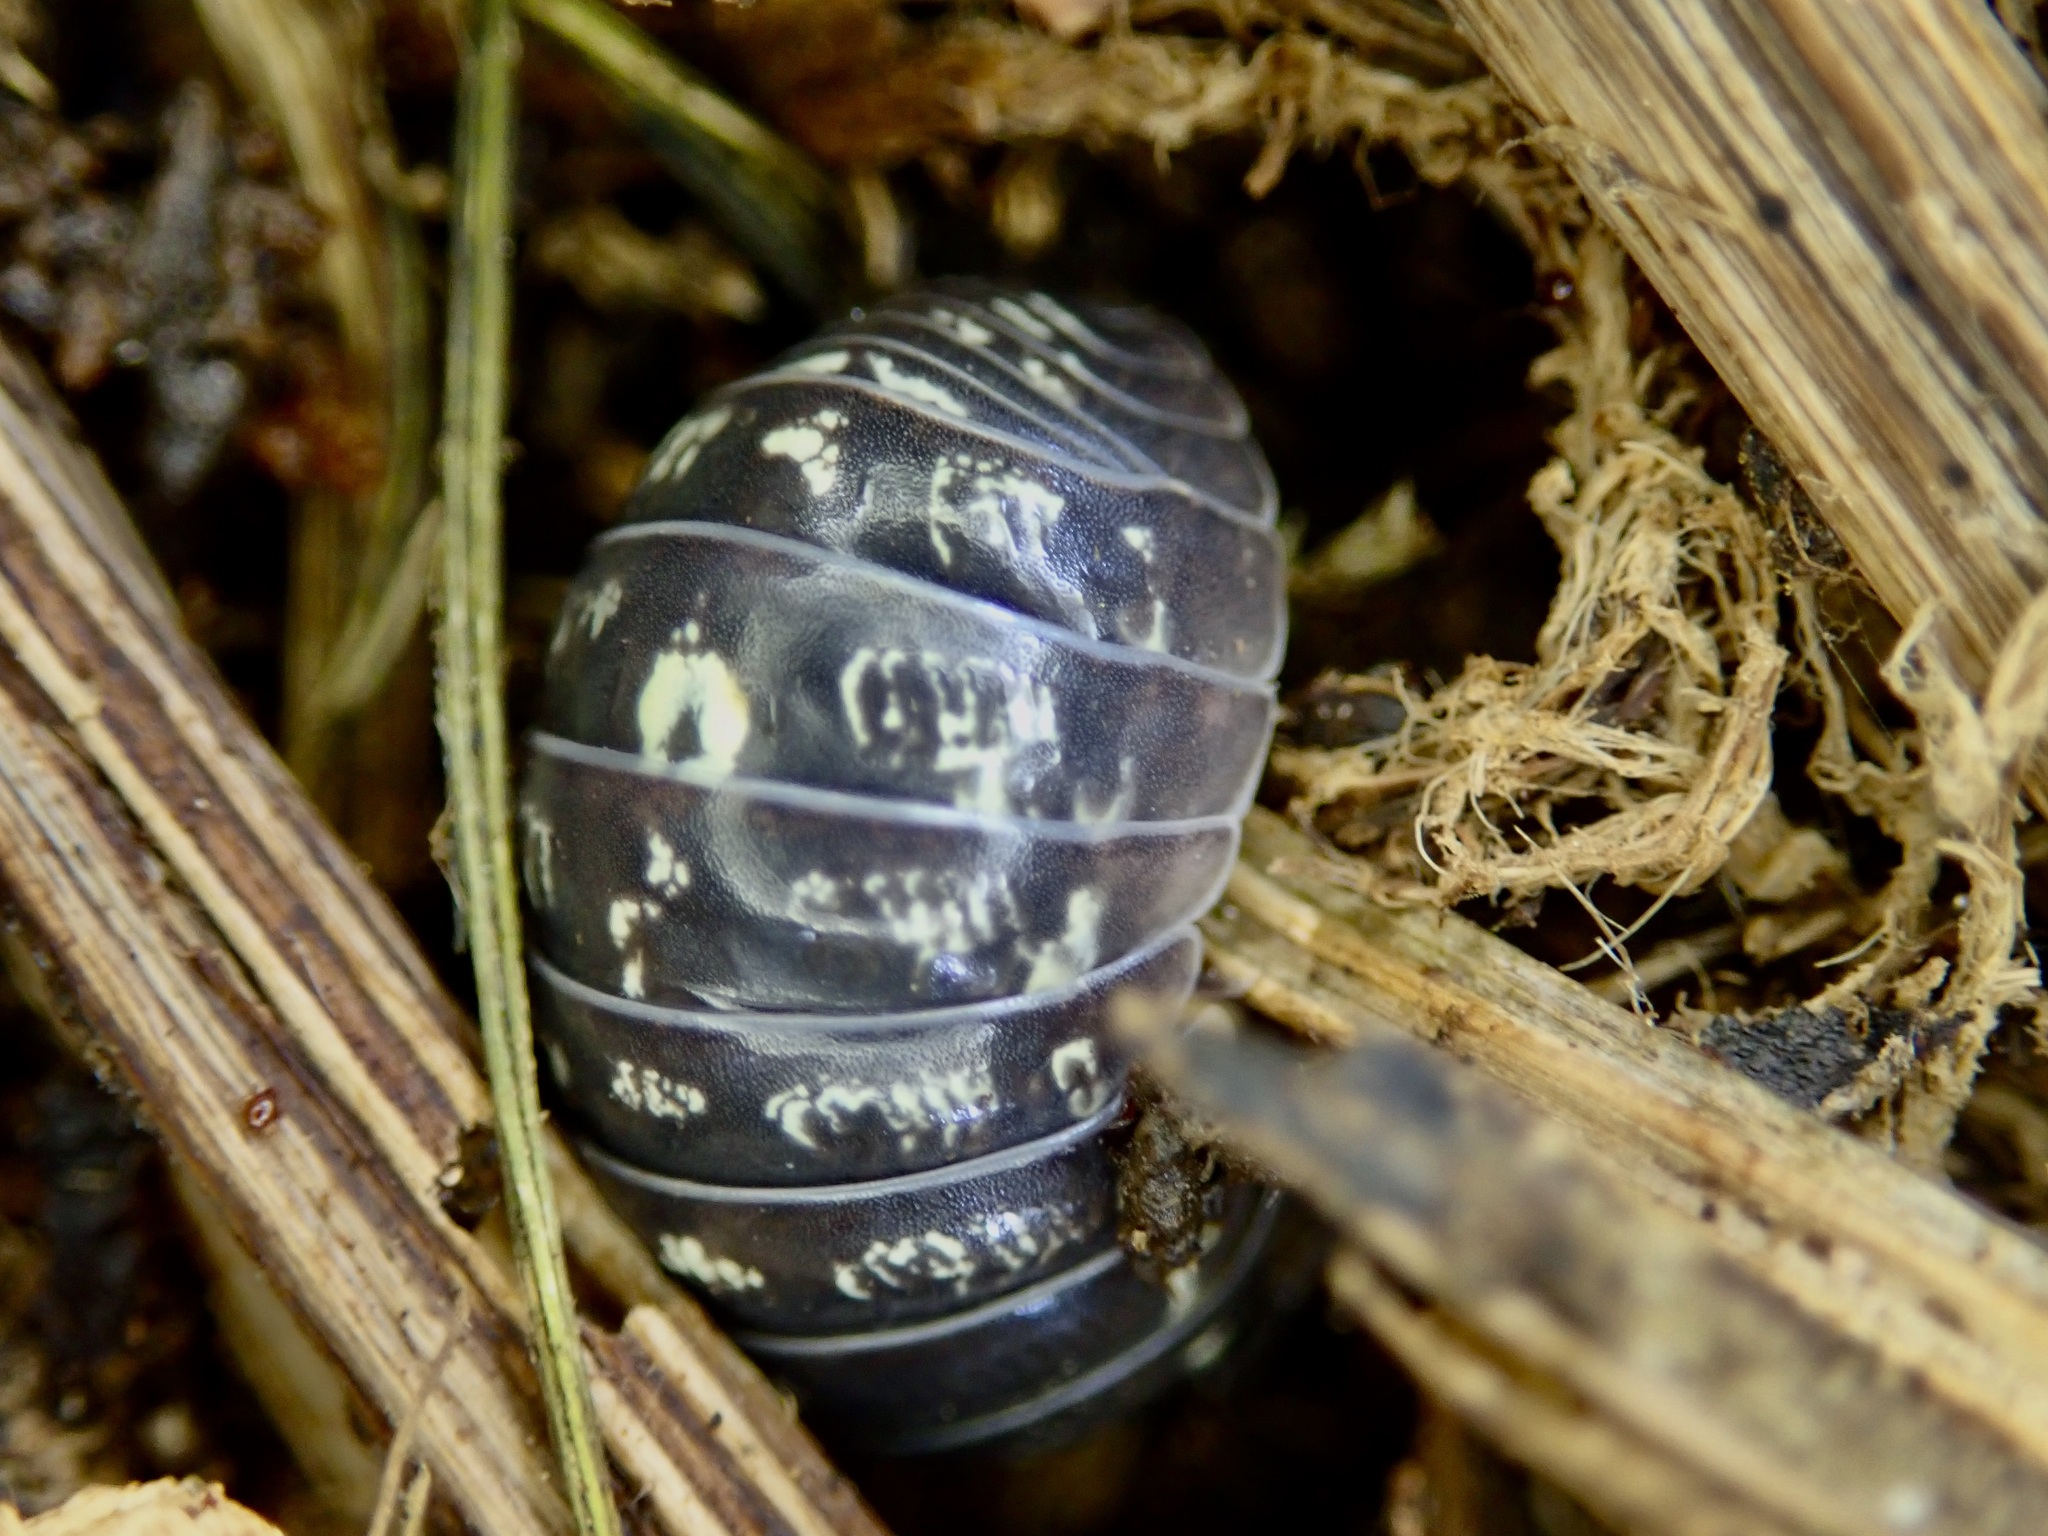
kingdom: Animalia
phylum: Arthropoda
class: Malacostraca
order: Isopoda
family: Armadillidiidae
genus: Armadillidium
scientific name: Armadillidium vulgare
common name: Common pill woodlouse
